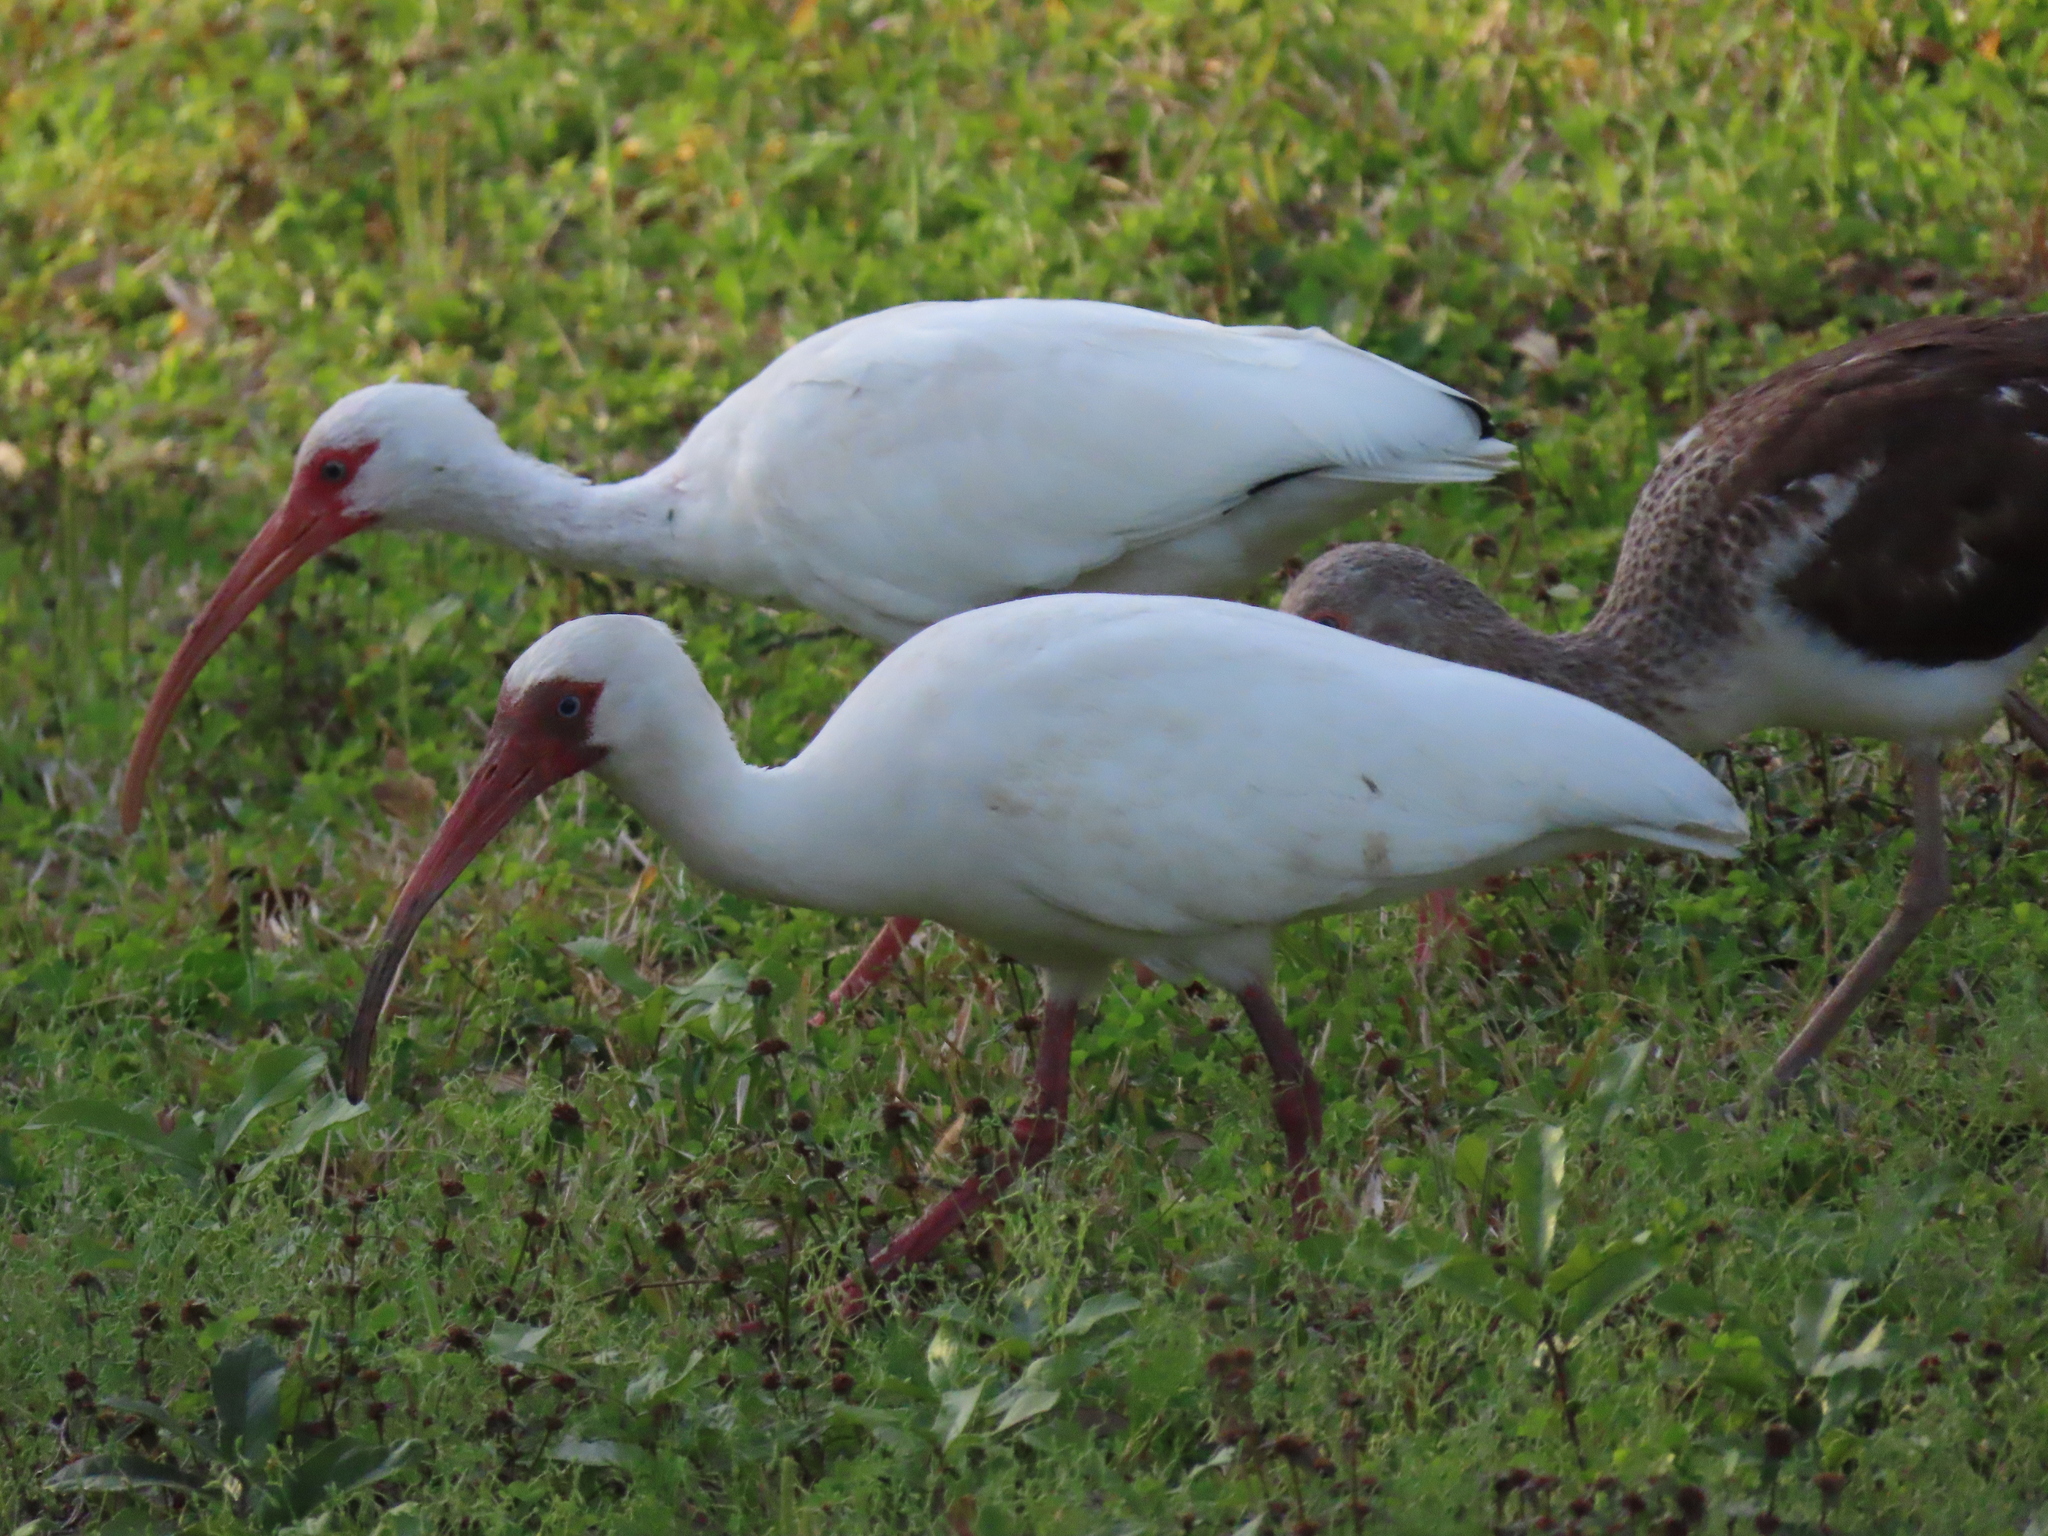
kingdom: Animalia
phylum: Chordata
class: Aves
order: Pelecaniformes
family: Threskiornithidae
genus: Eudocimus
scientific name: Eudocimus albus
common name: White ibis
